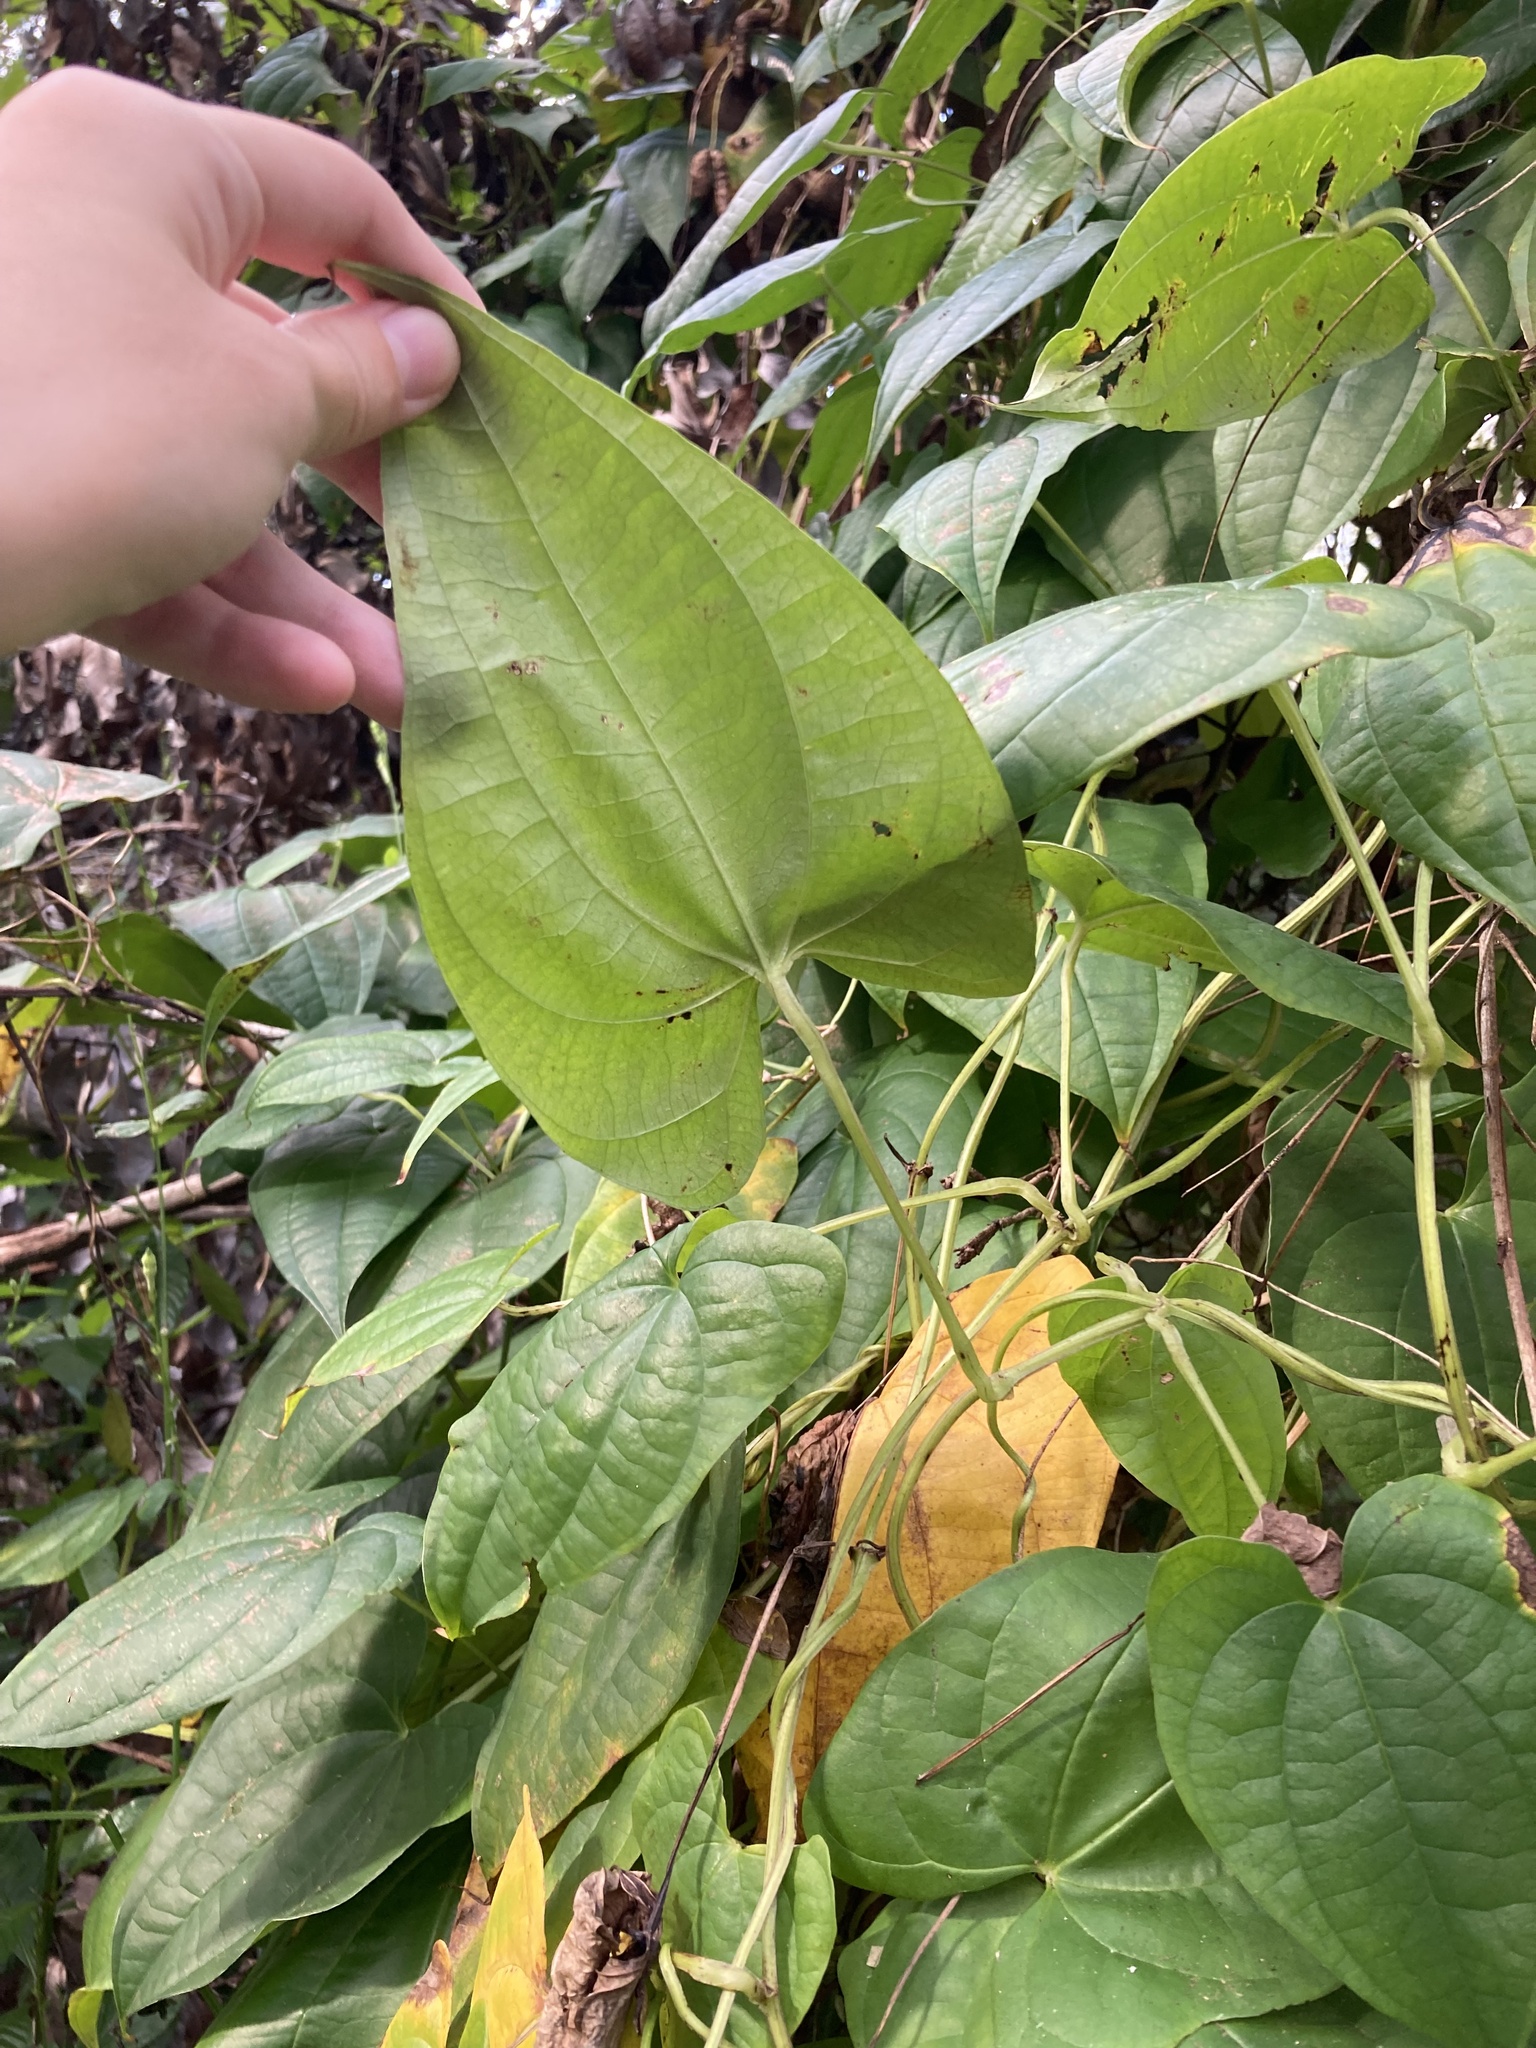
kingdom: Plantae
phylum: Tracheophyta
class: Liliopsida
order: Dioscoreales
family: Dioscoreaceae
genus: Dioscorea
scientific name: Dioscorea alata
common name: Water yam
